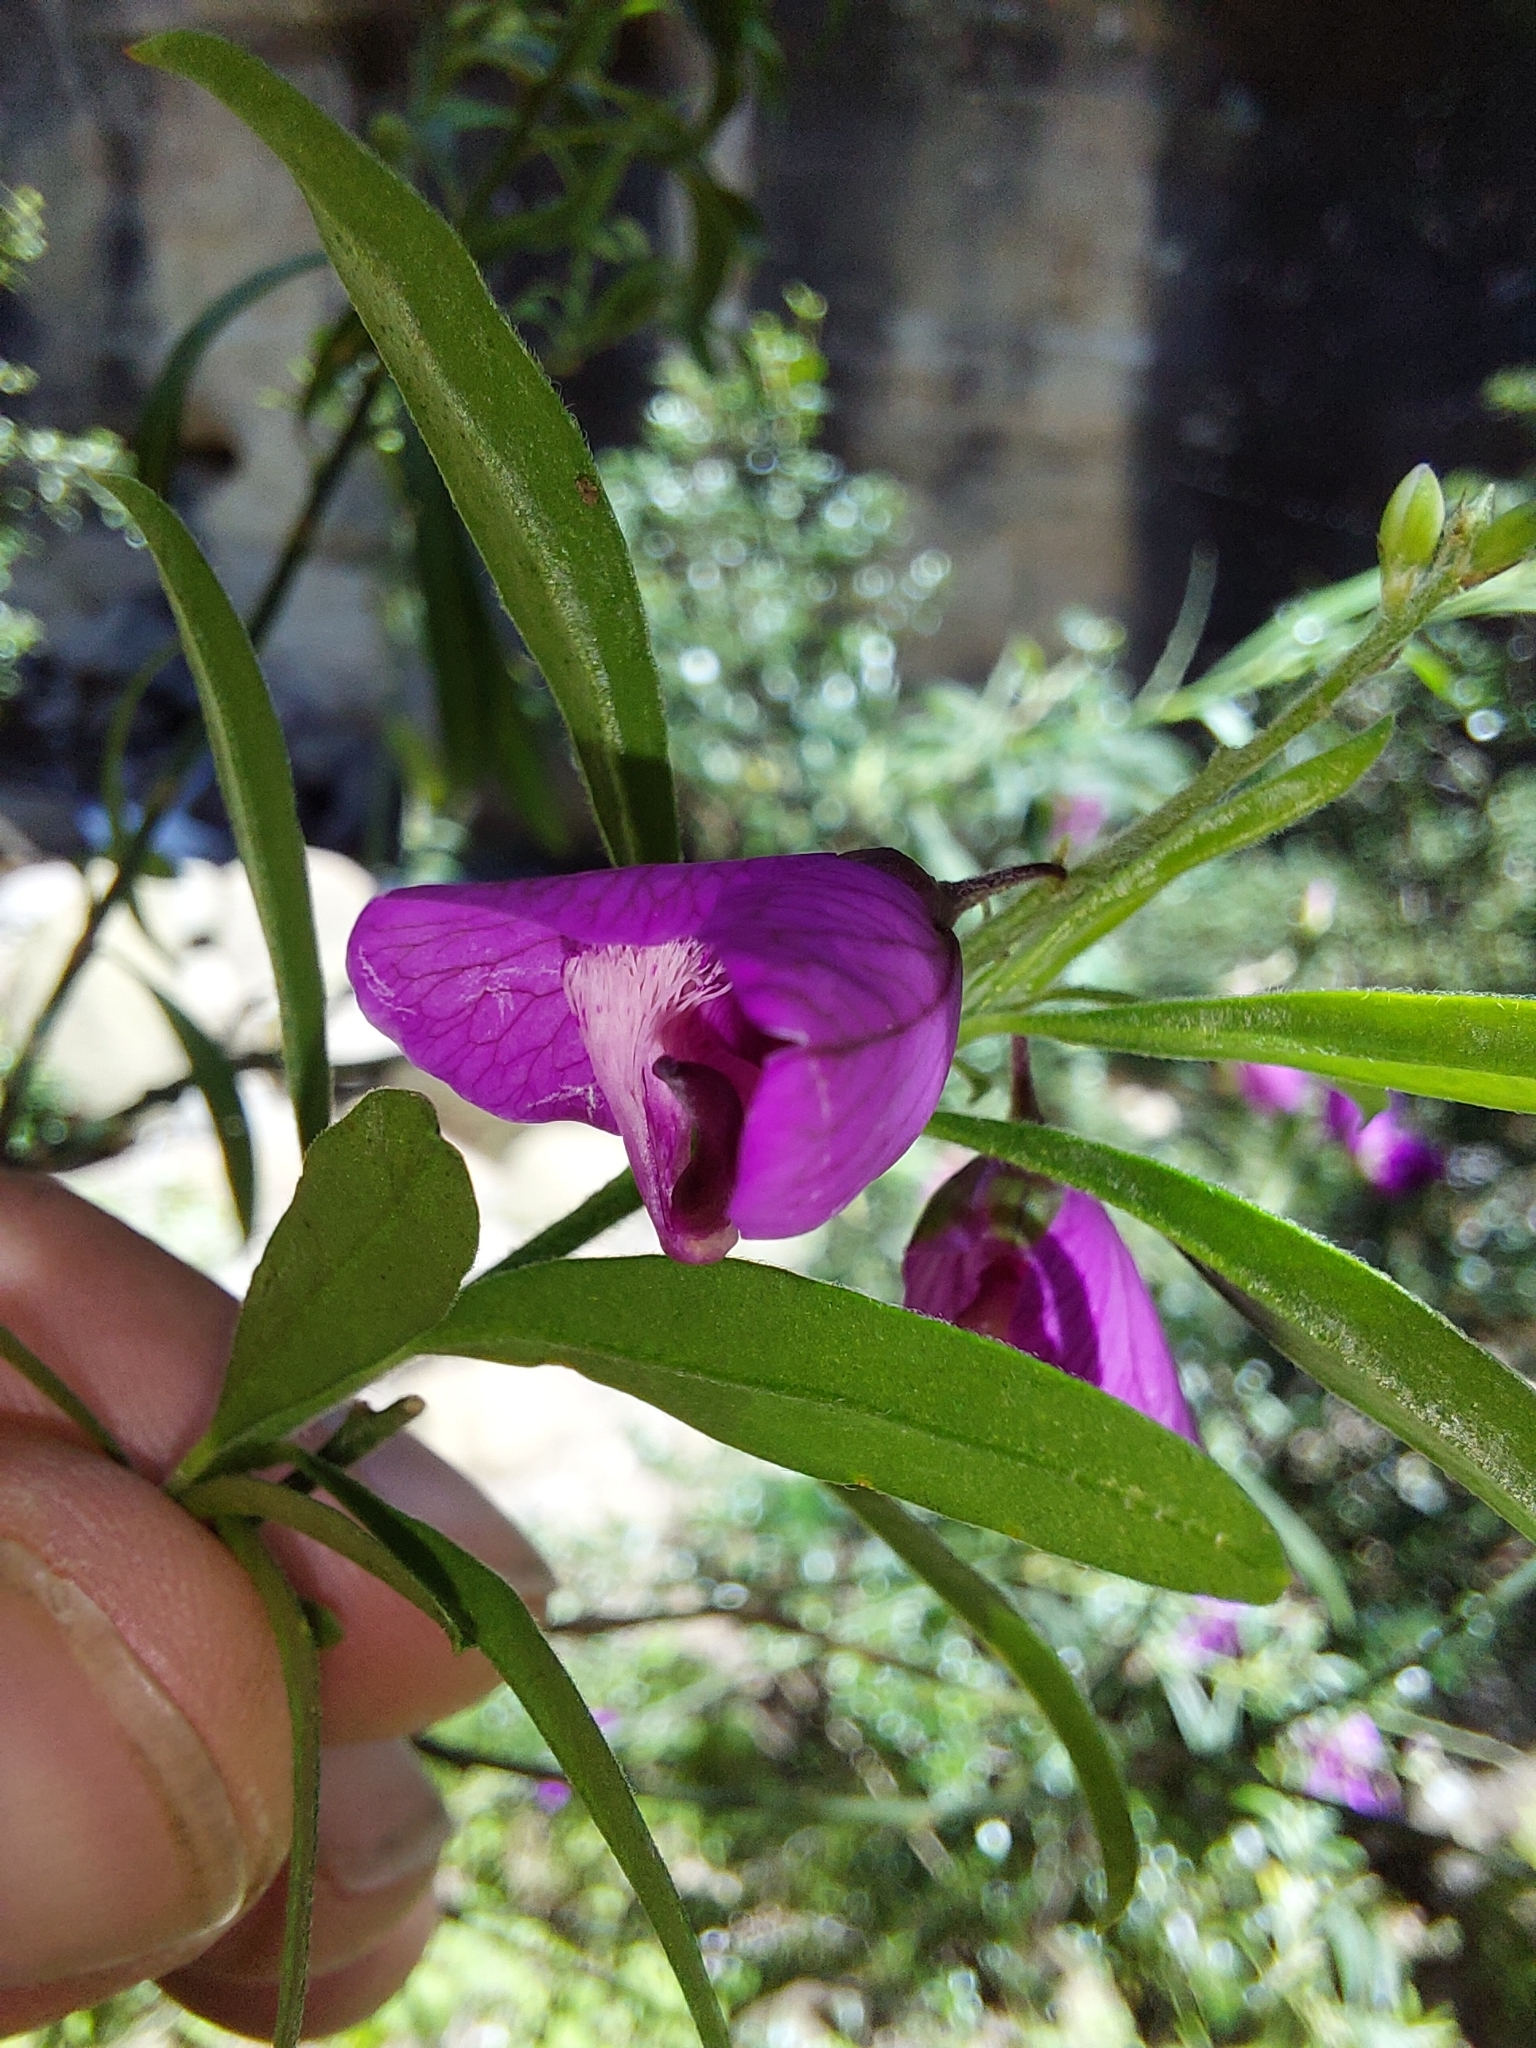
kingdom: Plantae
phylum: Tracheophyta
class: Magnoliopsida
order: Fabales
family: Polygalaceae
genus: Polygala
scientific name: Polygala virgata
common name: Milkwort
